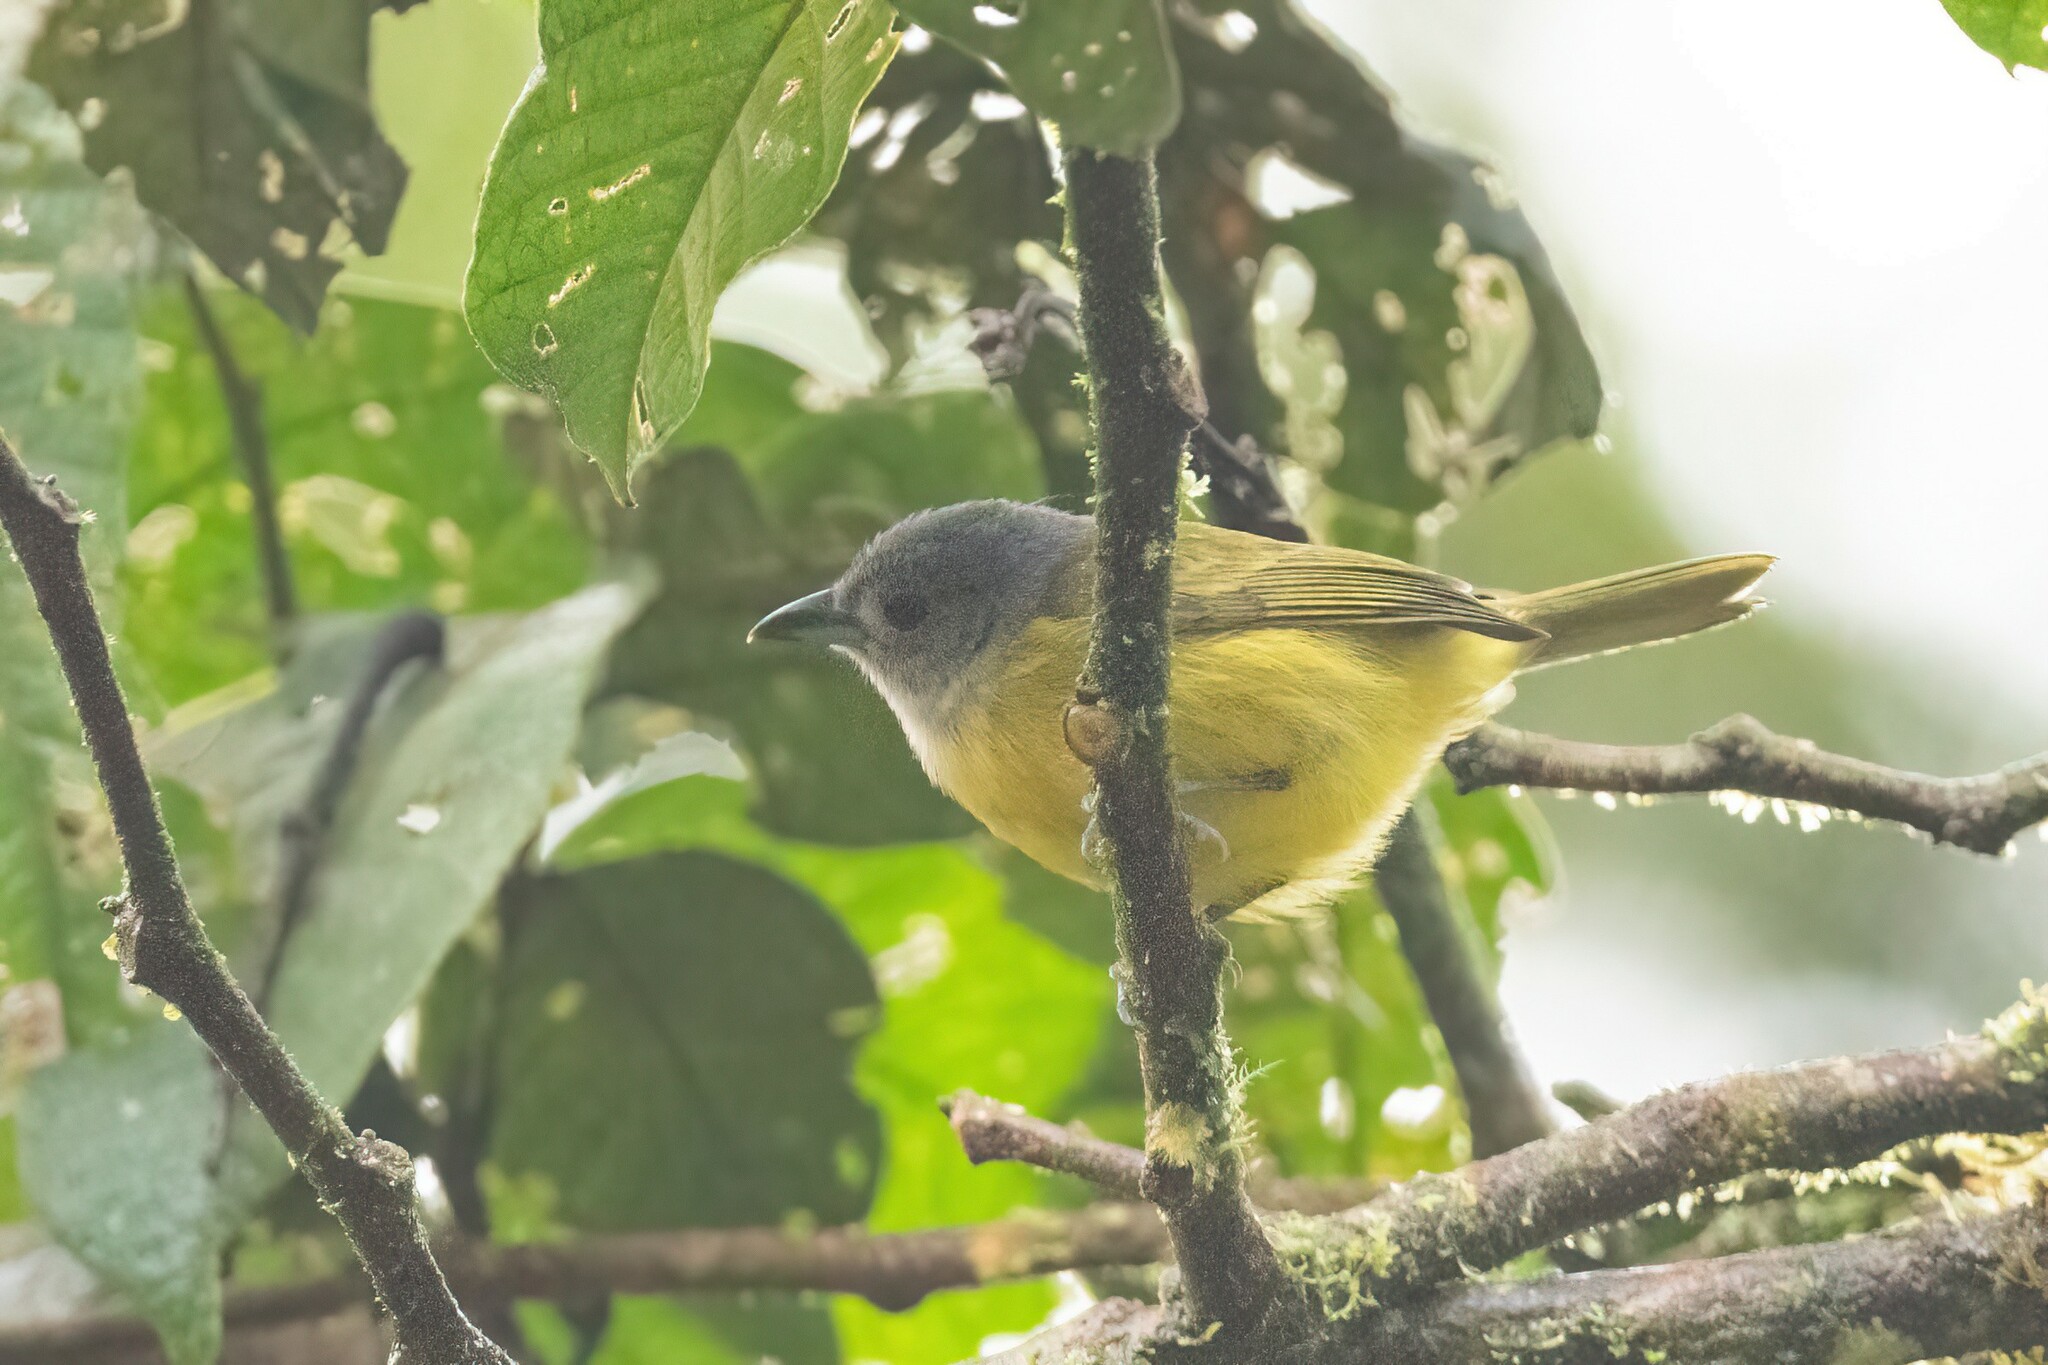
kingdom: Animalia
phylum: Chordata
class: Aves
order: Passeriformes
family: Thraupidae
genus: Loriotus
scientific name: Loriotus luctuosus
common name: White-shouldered tanager
